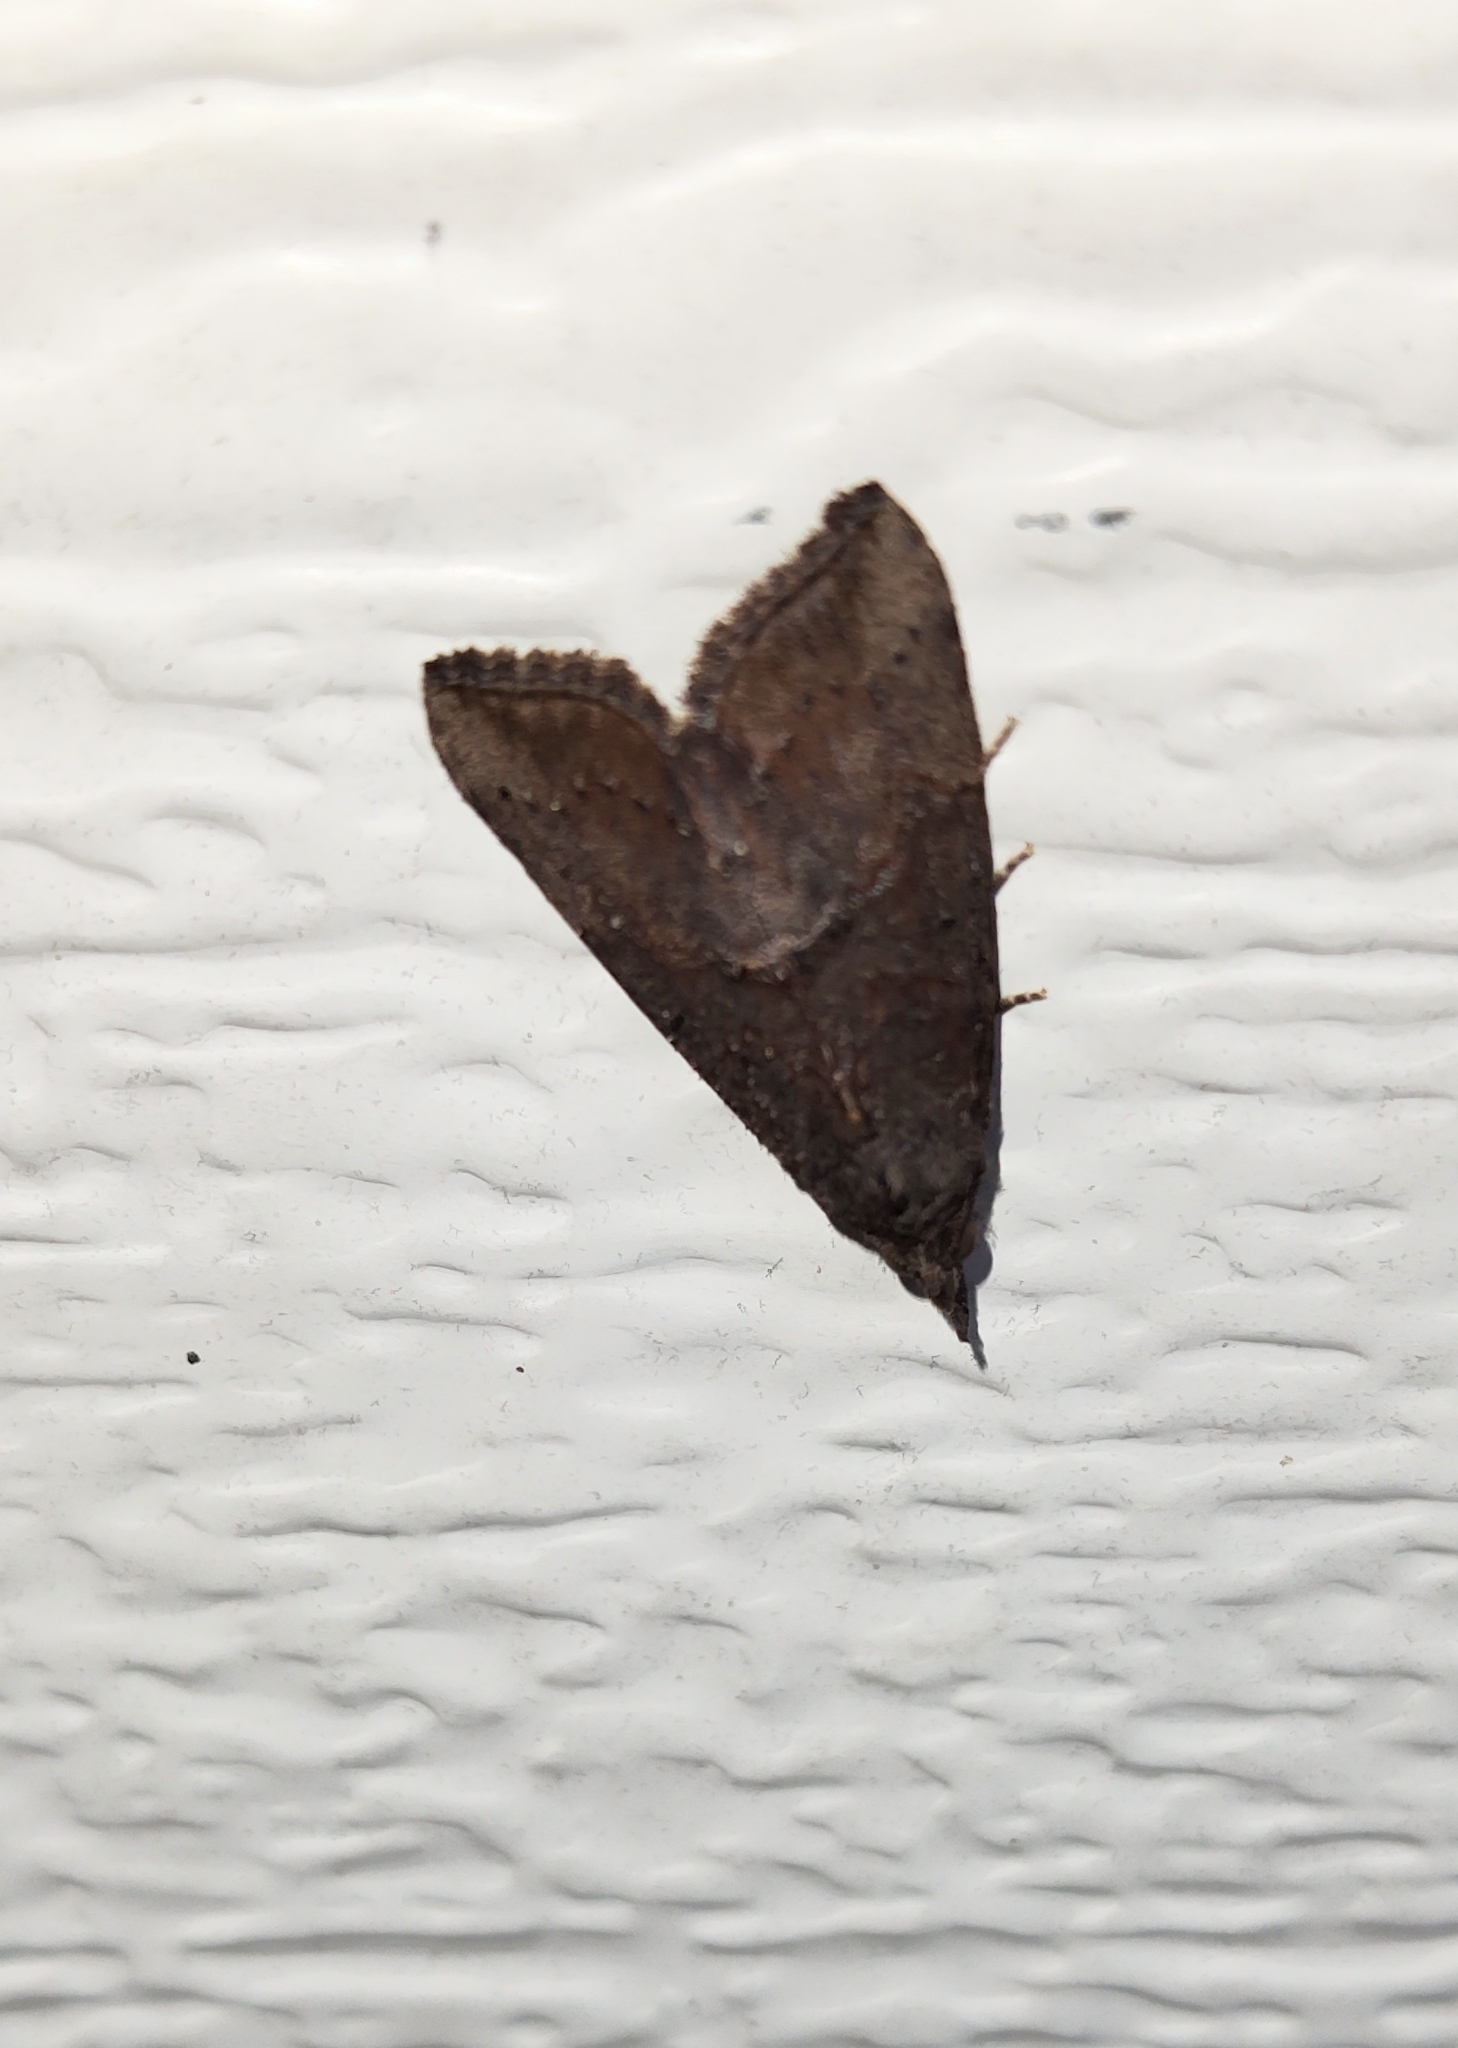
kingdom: Animalia
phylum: Arthropoda
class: Insecta
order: Lepidoptera
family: Erebidae
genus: Hypena
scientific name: Hypena scabra
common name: Green cloverworm
